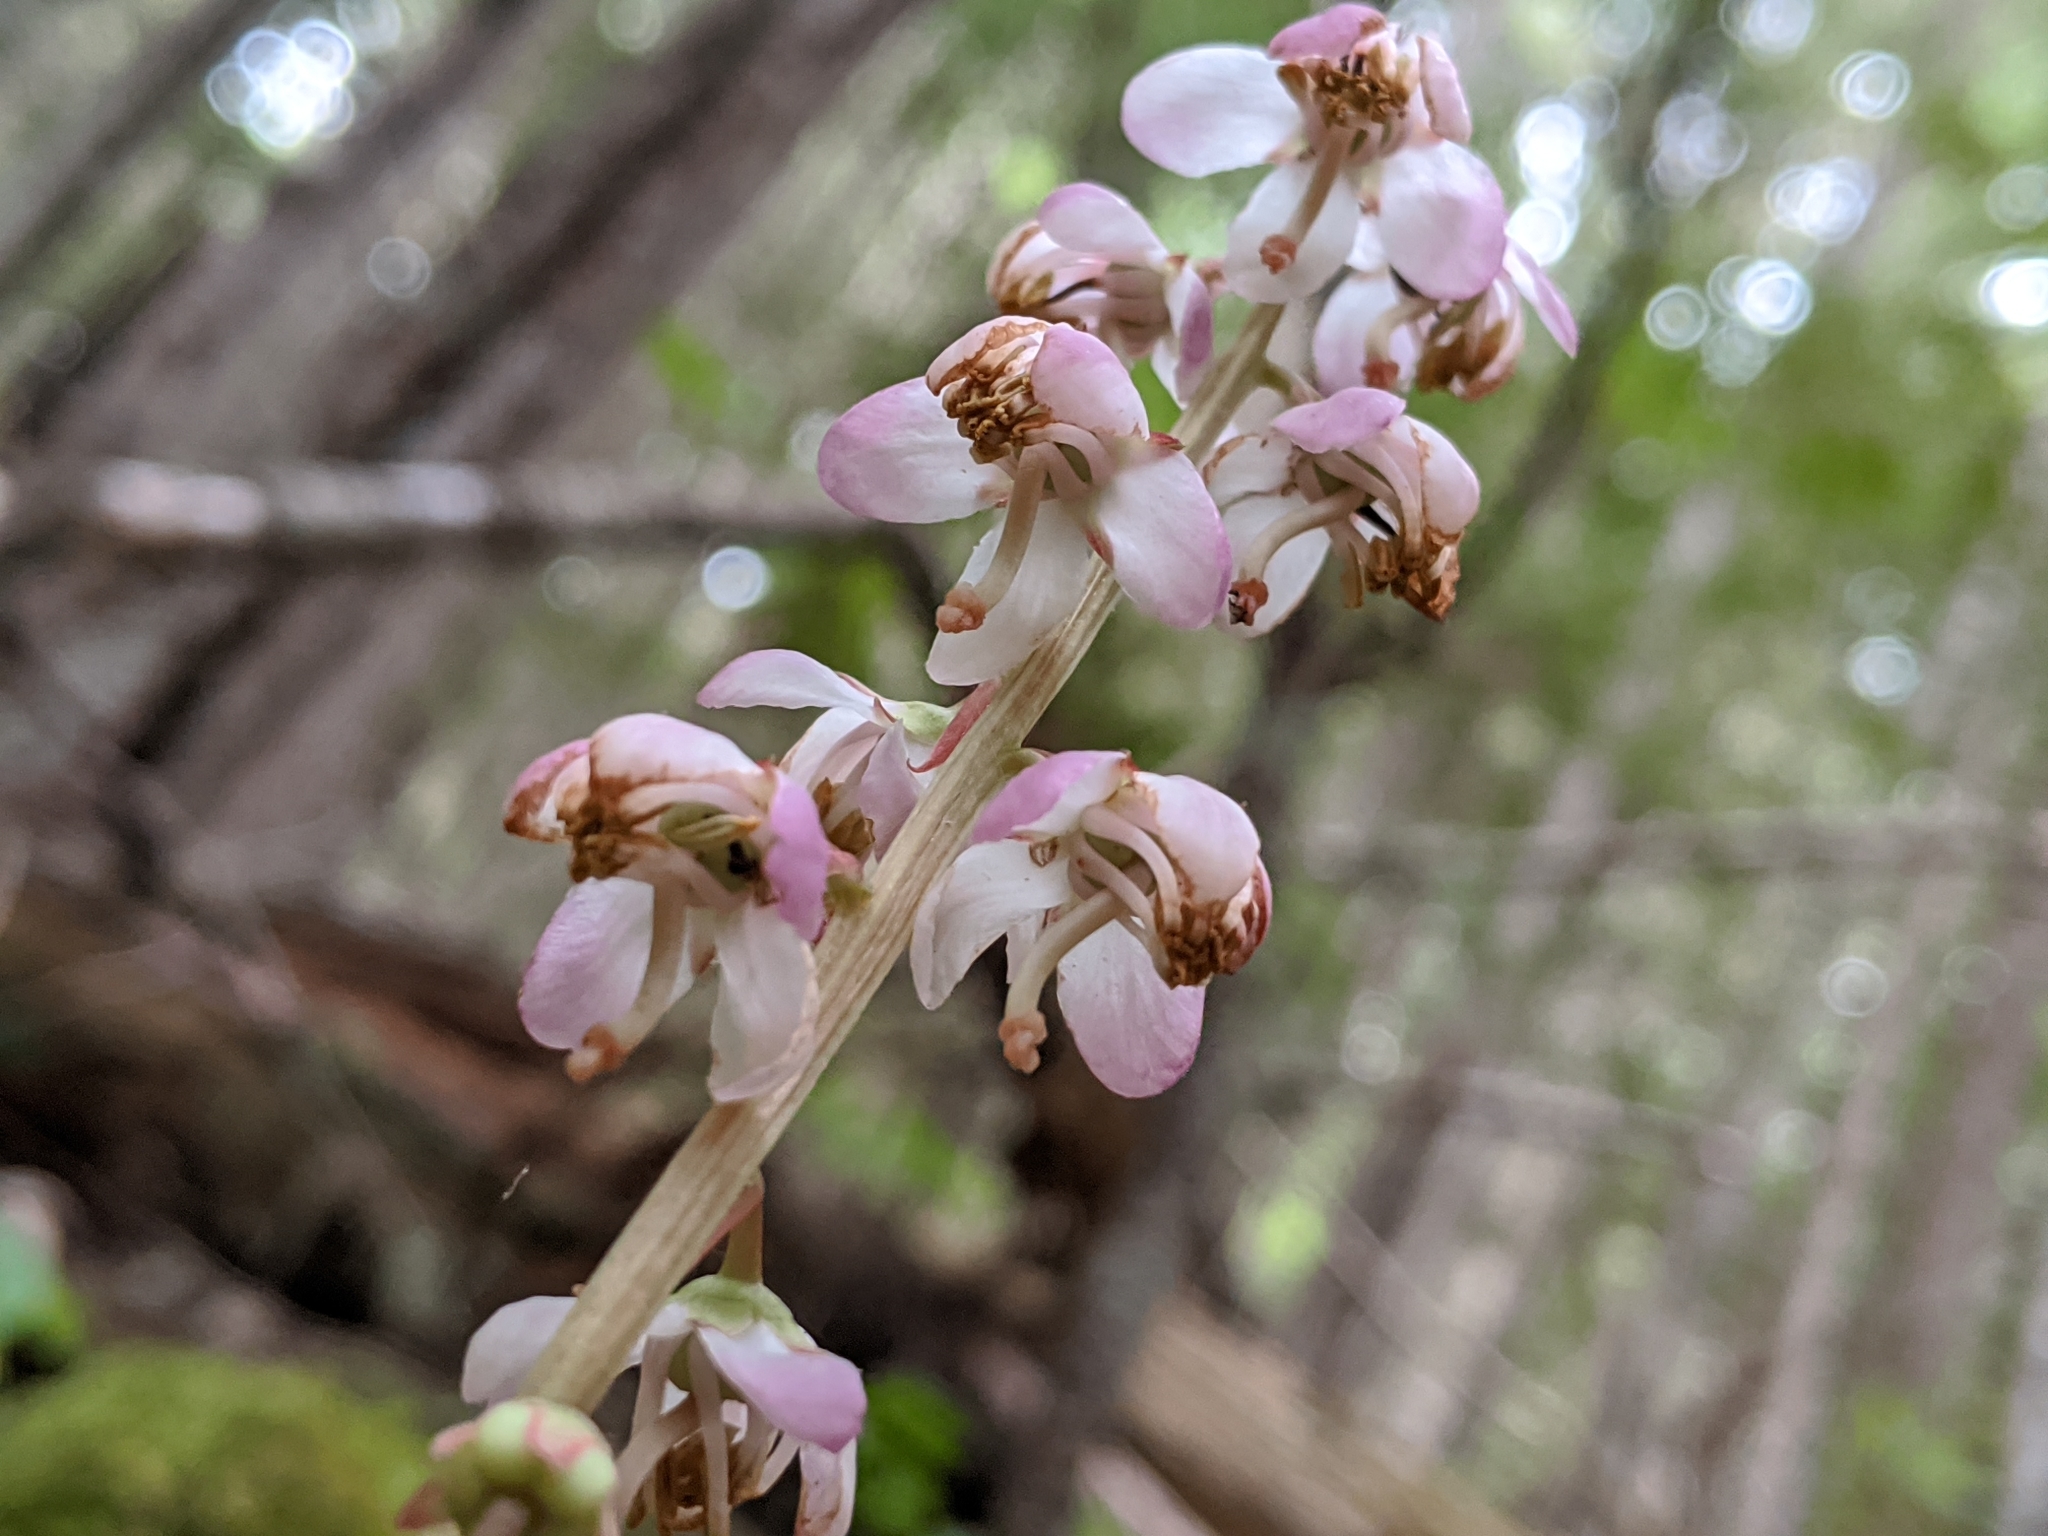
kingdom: Plantae
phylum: Tracheophyta
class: Magnoliopsida
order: Ericales
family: Ericaceae
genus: Pyrola
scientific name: Pyrola asarifolia
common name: Bog wintergreen
